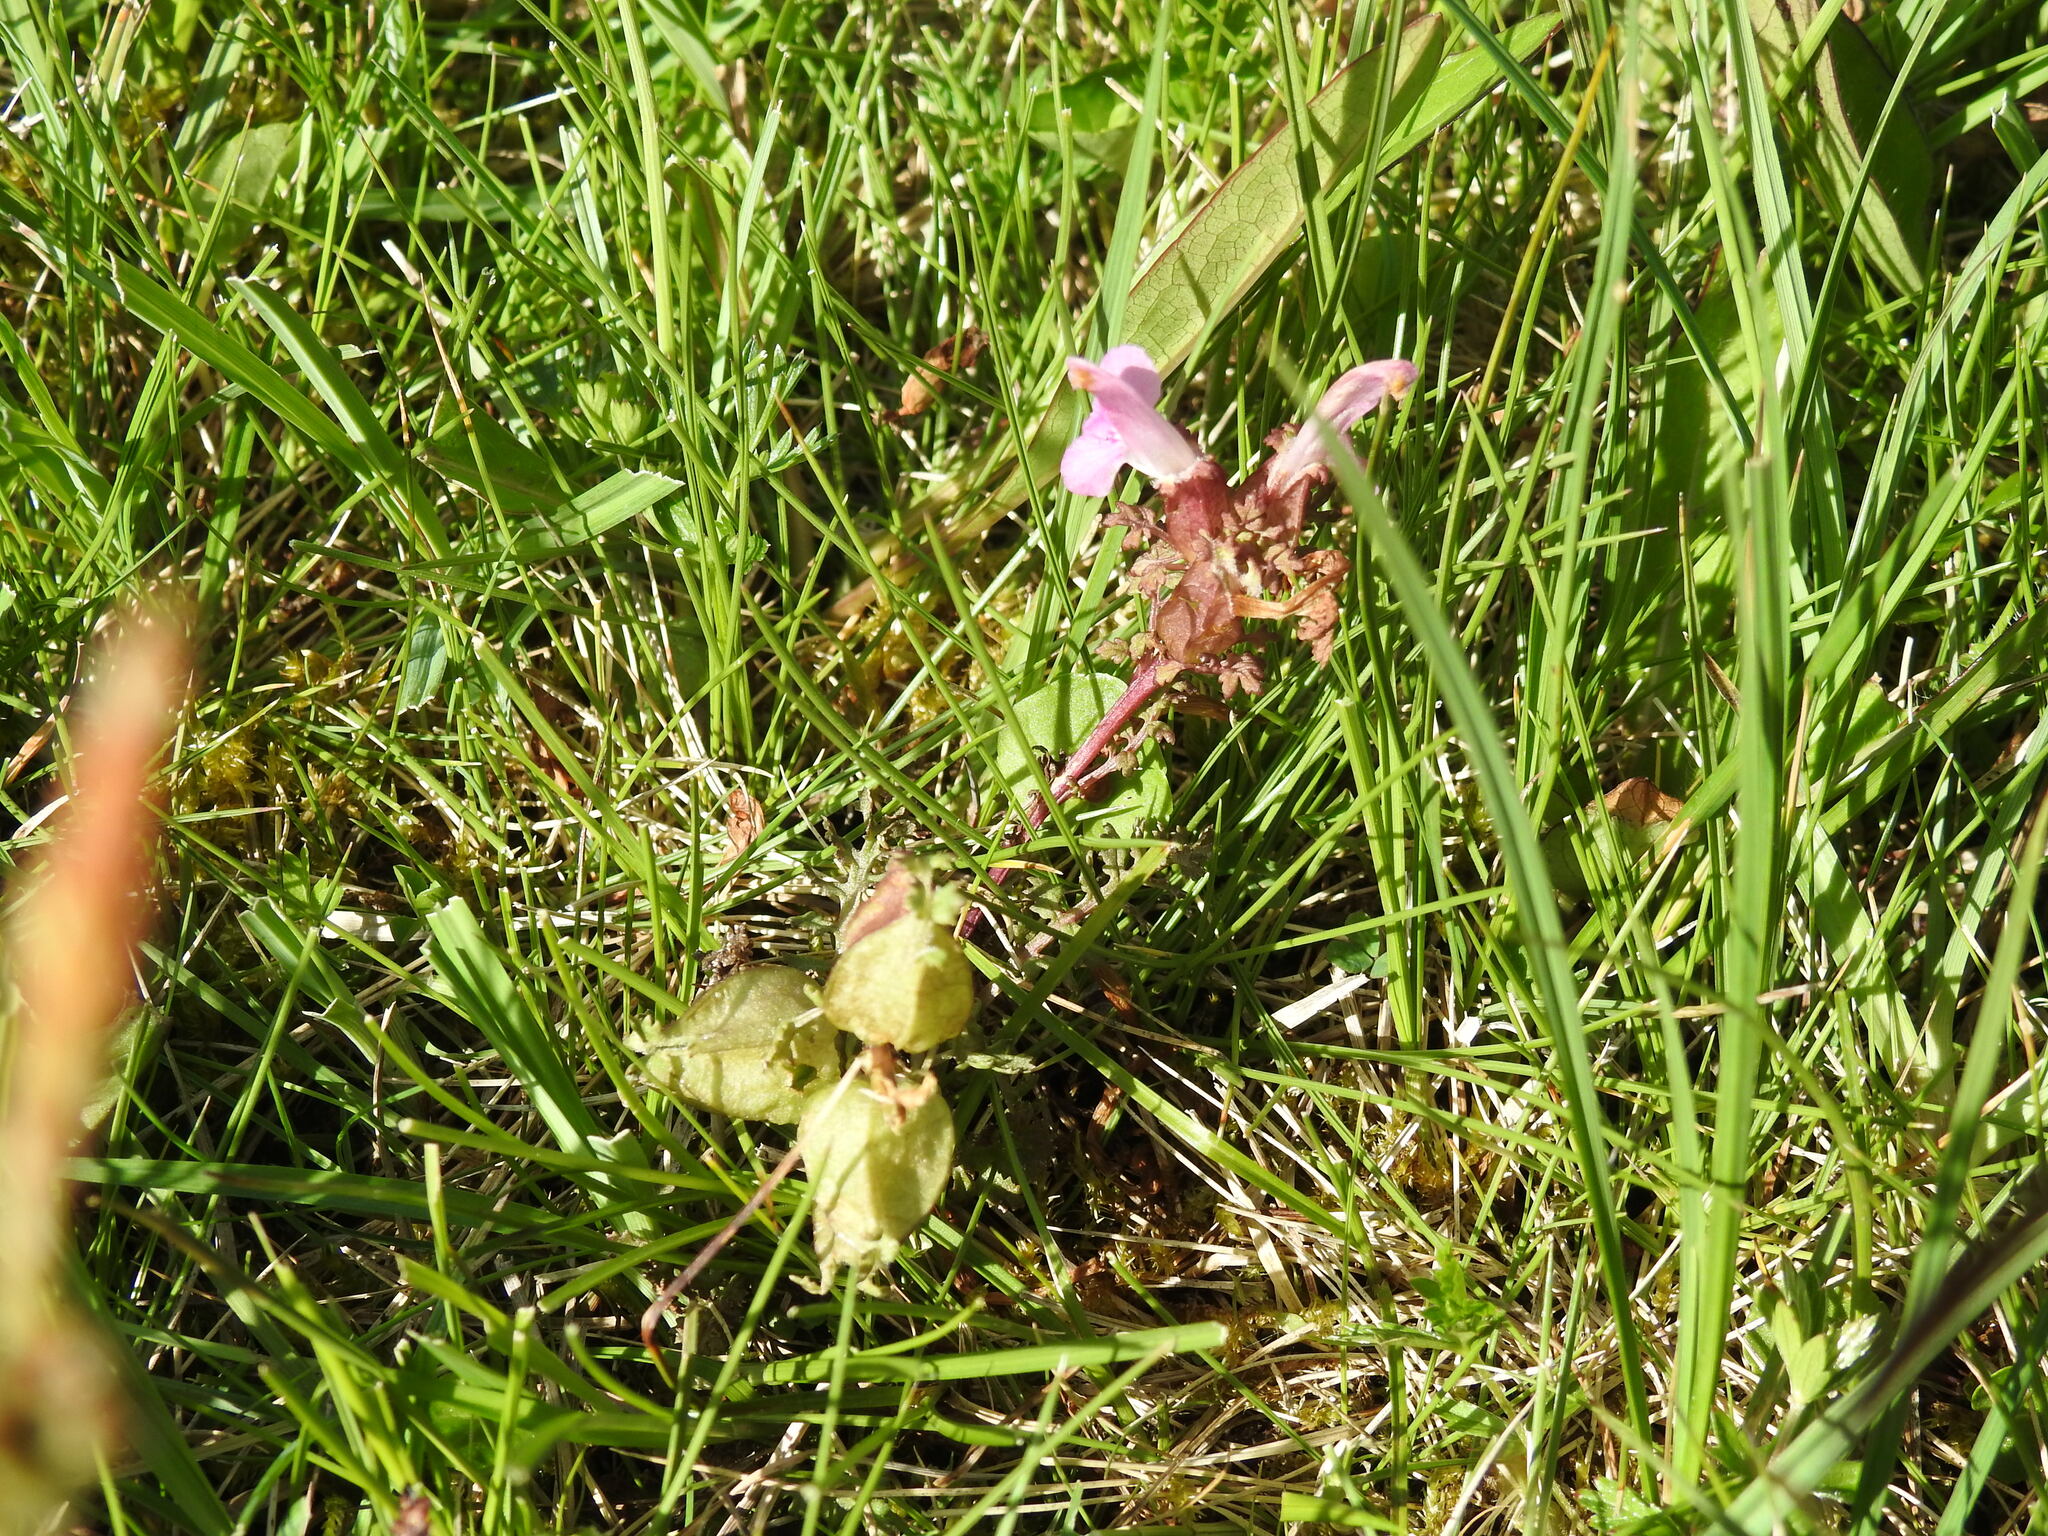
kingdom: Plantae
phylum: Tracheophyta
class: Magnoliopsida
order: Lamiales
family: Orobanchaceae
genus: Pedicularis
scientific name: Pedicularis sylvatica
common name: Lousewort
